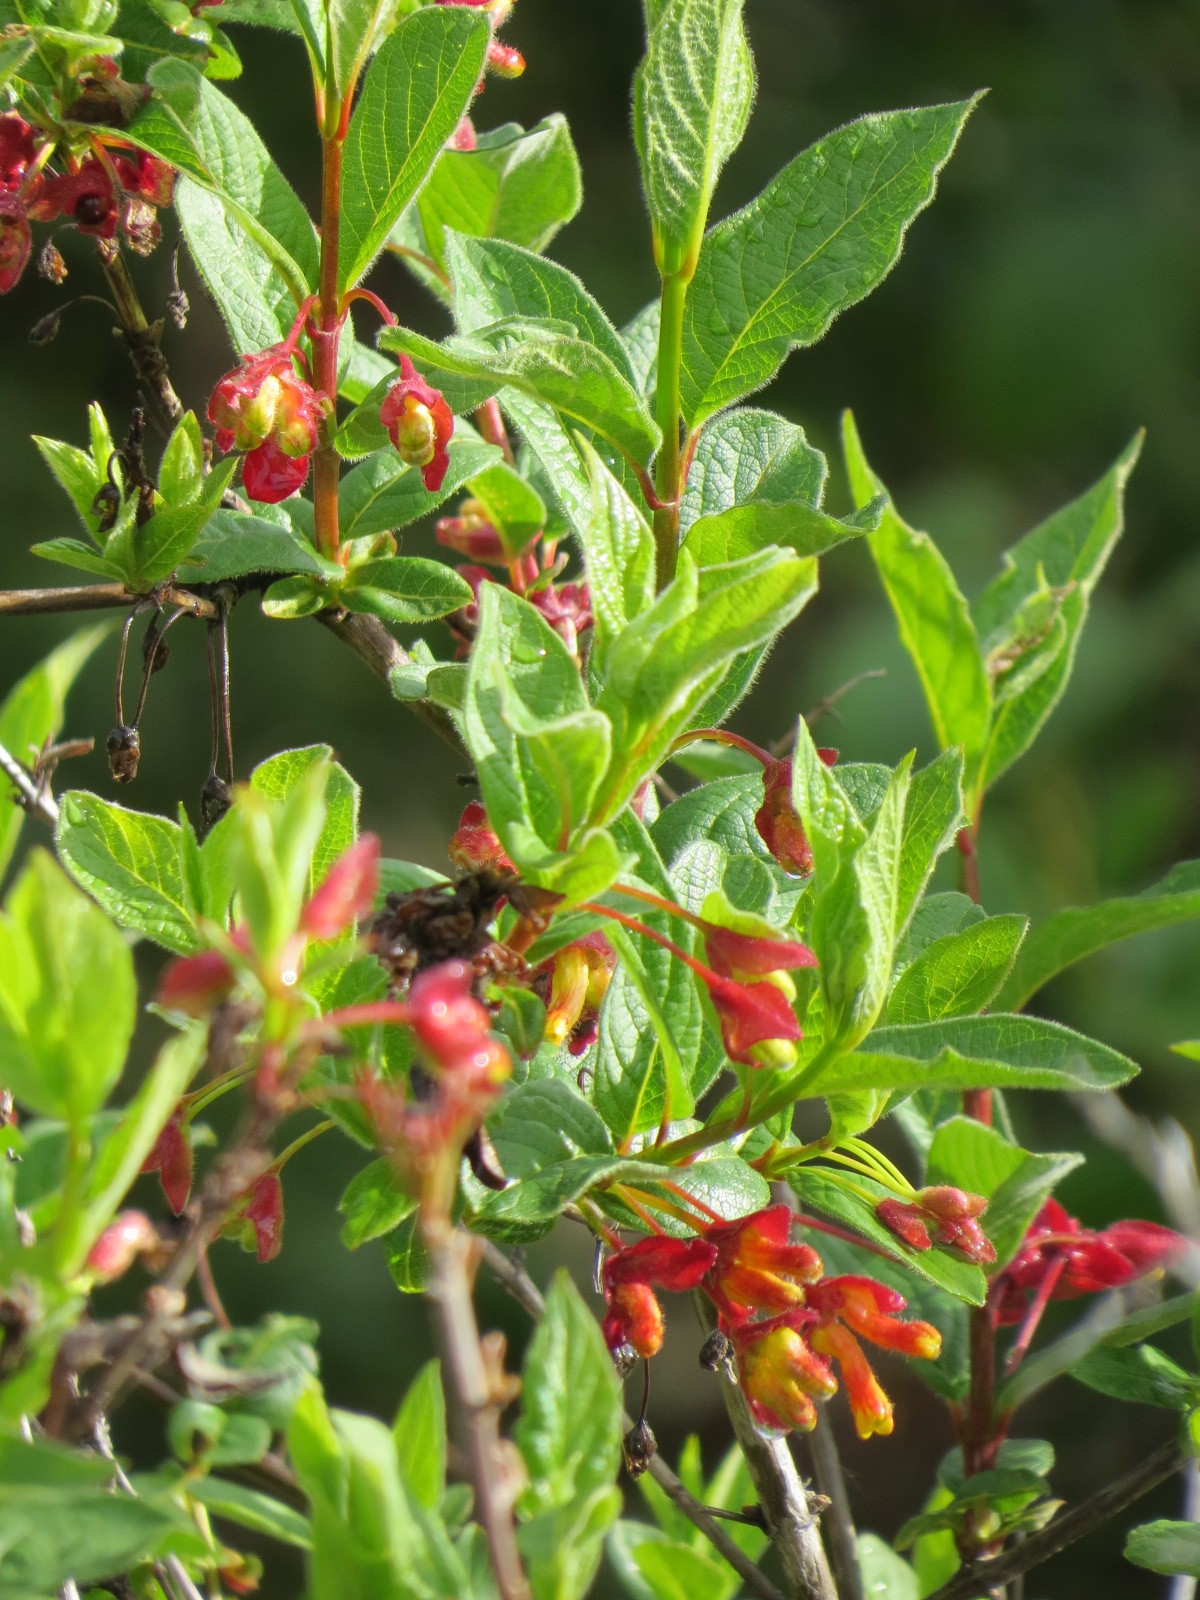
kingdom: Plantae
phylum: Tracheophyta
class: Magnoliopsida
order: Dipsacales
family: Caprifoliaceae
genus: Lonicera
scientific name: Lonicera involucrata
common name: Californian honeysuckle
